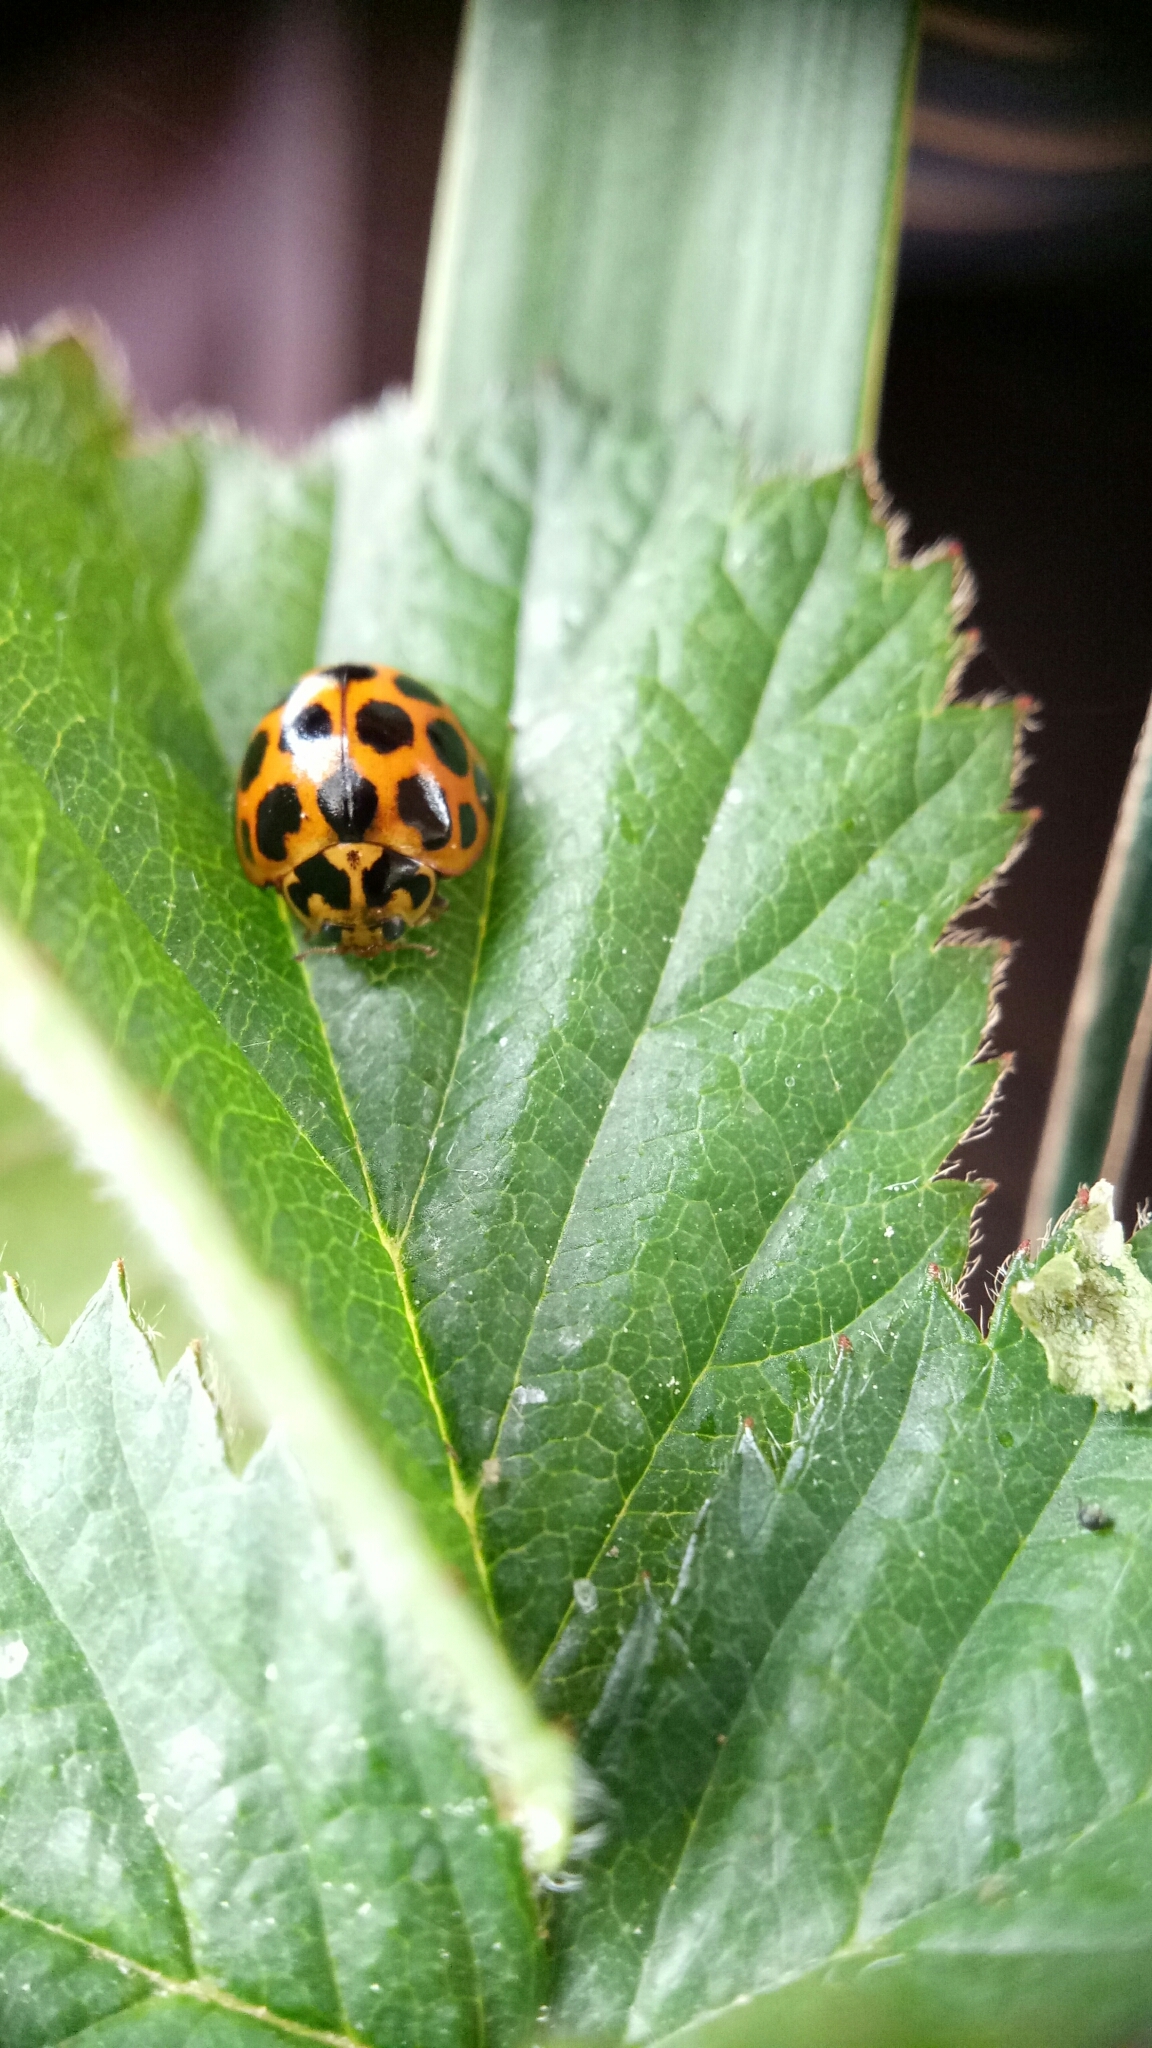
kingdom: Animalia
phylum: Arthropoda
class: Insecta
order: Coleoptera
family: Coccinellidae
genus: Harmonia
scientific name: Harmonia conformis
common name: Common spotted ladybird beetle
